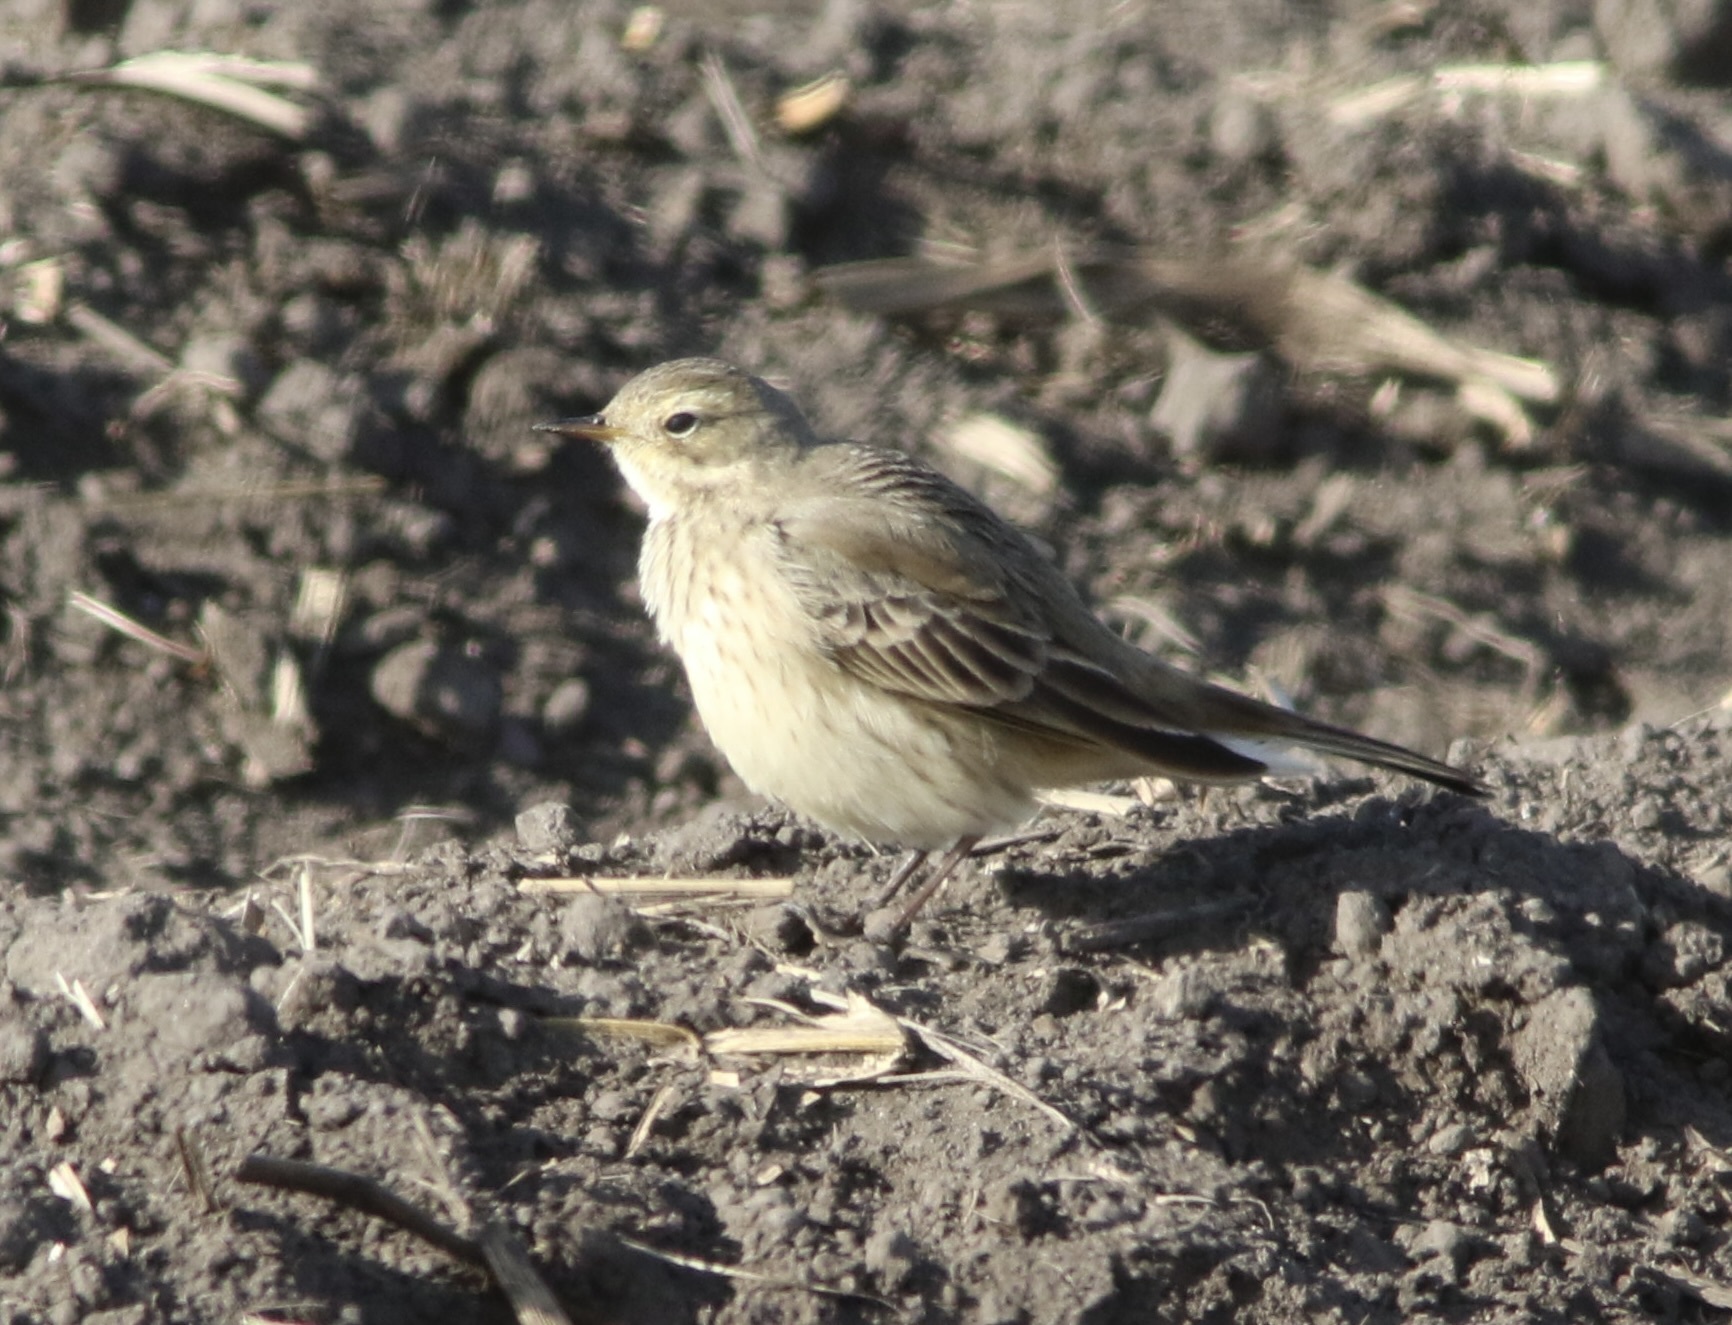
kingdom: Animalia
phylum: Chordata
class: Aves
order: Passeriformes
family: Motacillidae
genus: Anthus
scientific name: Anthus rubescens
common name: Buff-bellied pipit
